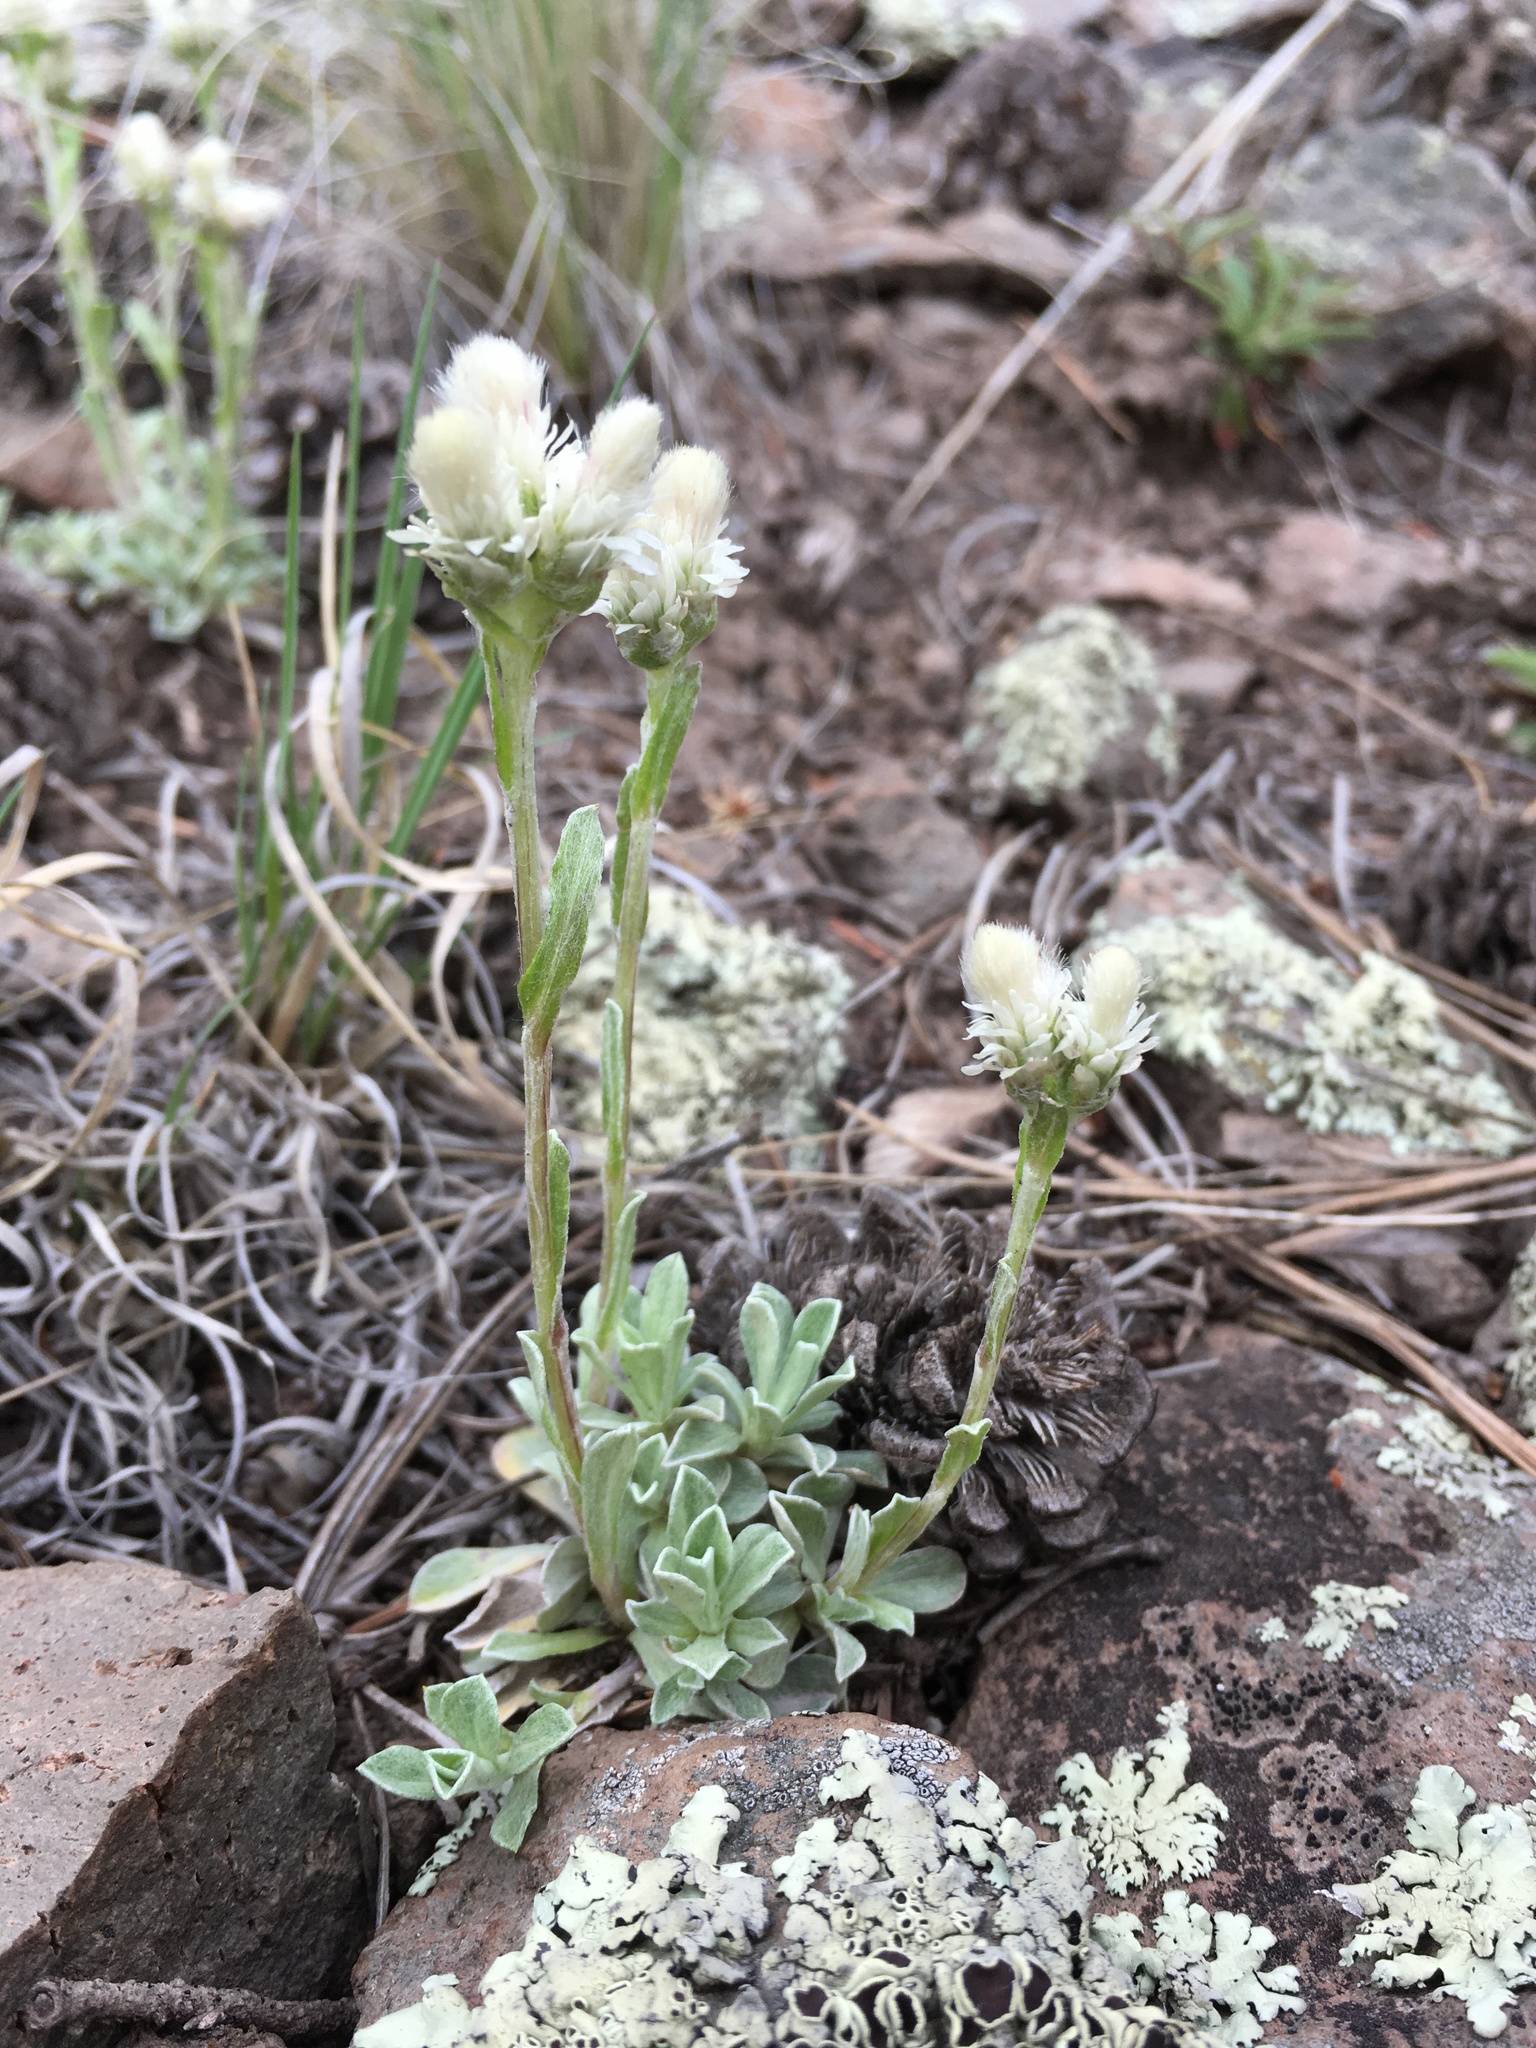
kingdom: Plantae
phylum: Tracheophyta
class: Magnoliopsida
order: Asterales
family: Asteraceae
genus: Antennaria
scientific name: Antennaria parvifolia
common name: Nuttall's pussytoes
